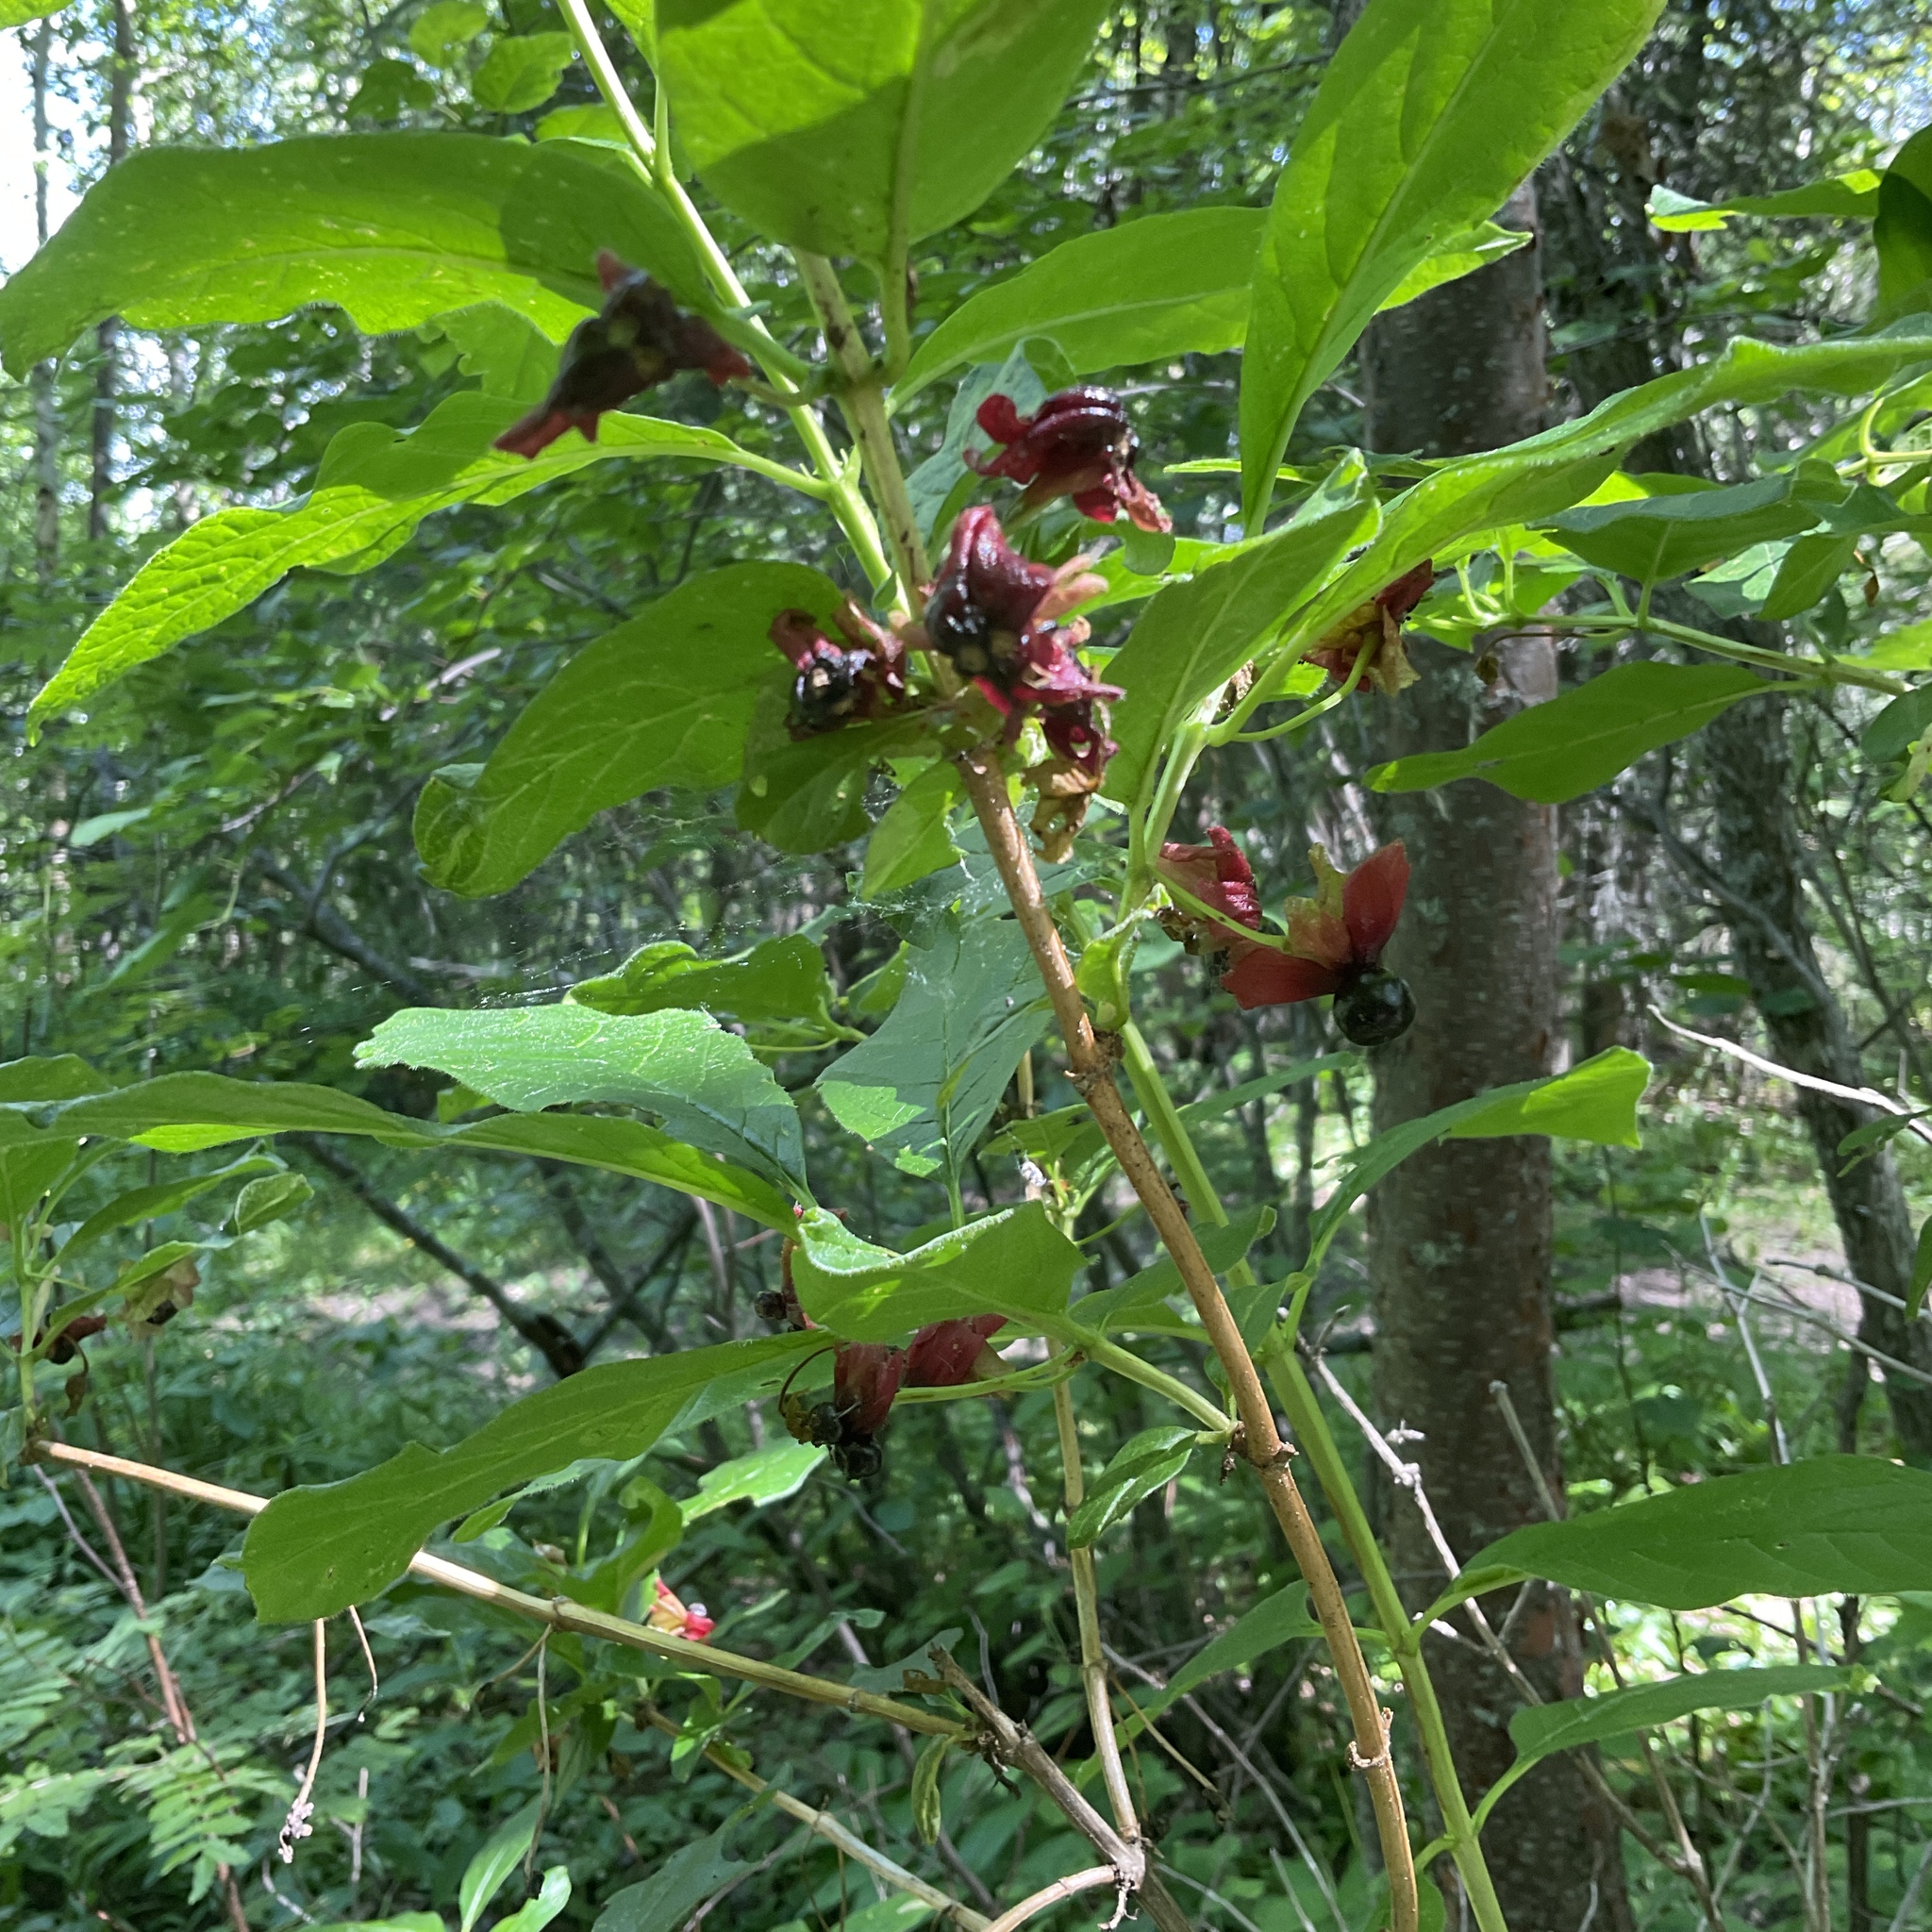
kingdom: Plantae
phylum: Tracheophyta
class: Magnoliopsida
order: Dipsacales
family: Caprifoliaceae
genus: Lonicera
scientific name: Lonicera involucrata
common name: Californian honeysuckle
